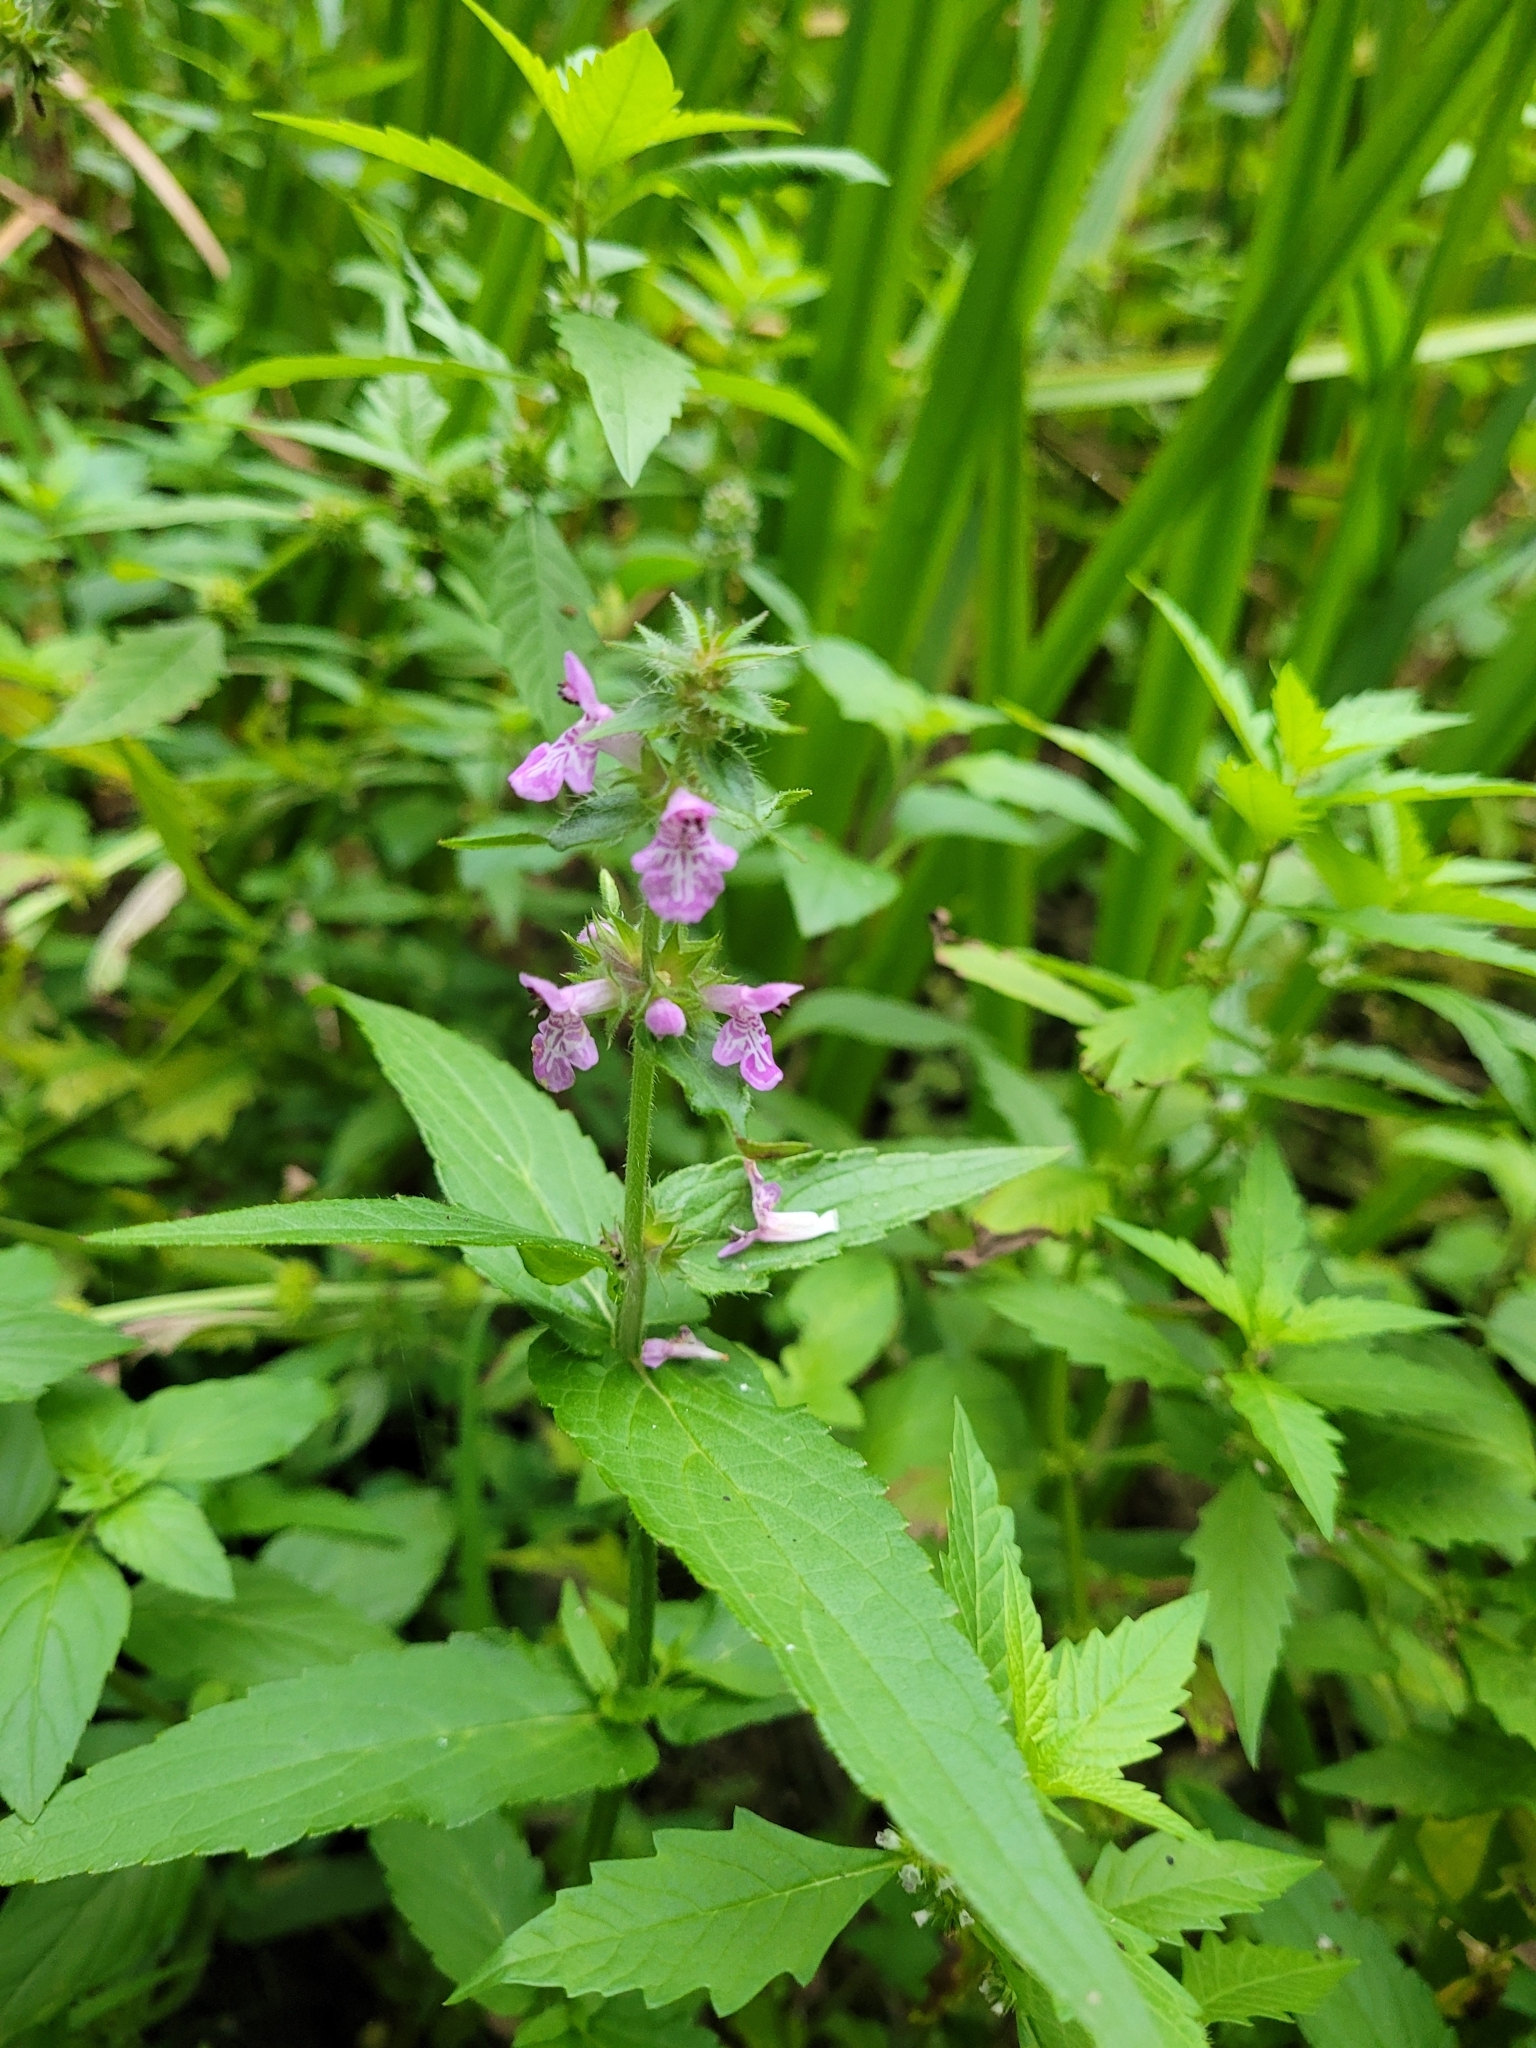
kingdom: Plantae
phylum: Tracheophyta
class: Magnoliopsida
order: Lamiales
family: Lamiaceae
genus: Stachys
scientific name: Stachys palustris
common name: Marsh woundwort
